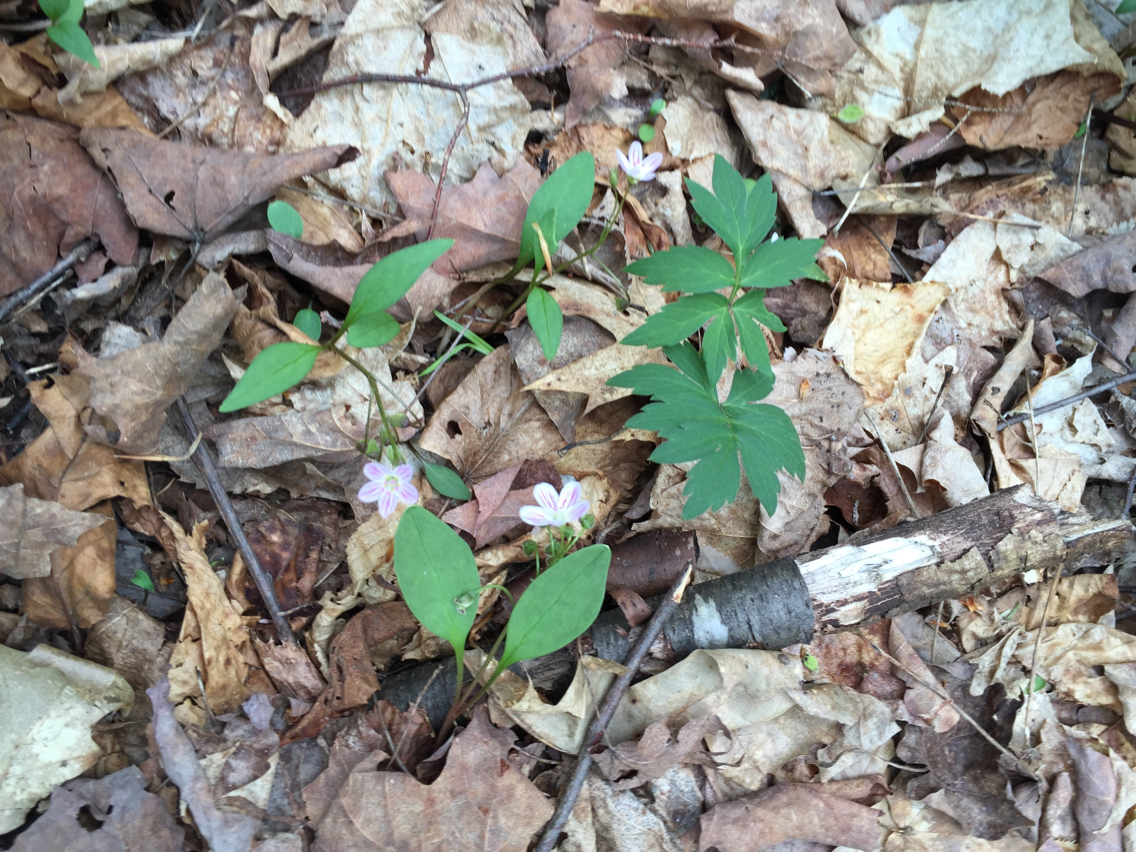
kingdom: Plantae
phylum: Tracheophyta
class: Magnoliopsida
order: Caryophyllales
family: Montiaceae
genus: Claytonia
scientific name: Claytonia caroliniana
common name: Carolina spring beauty
